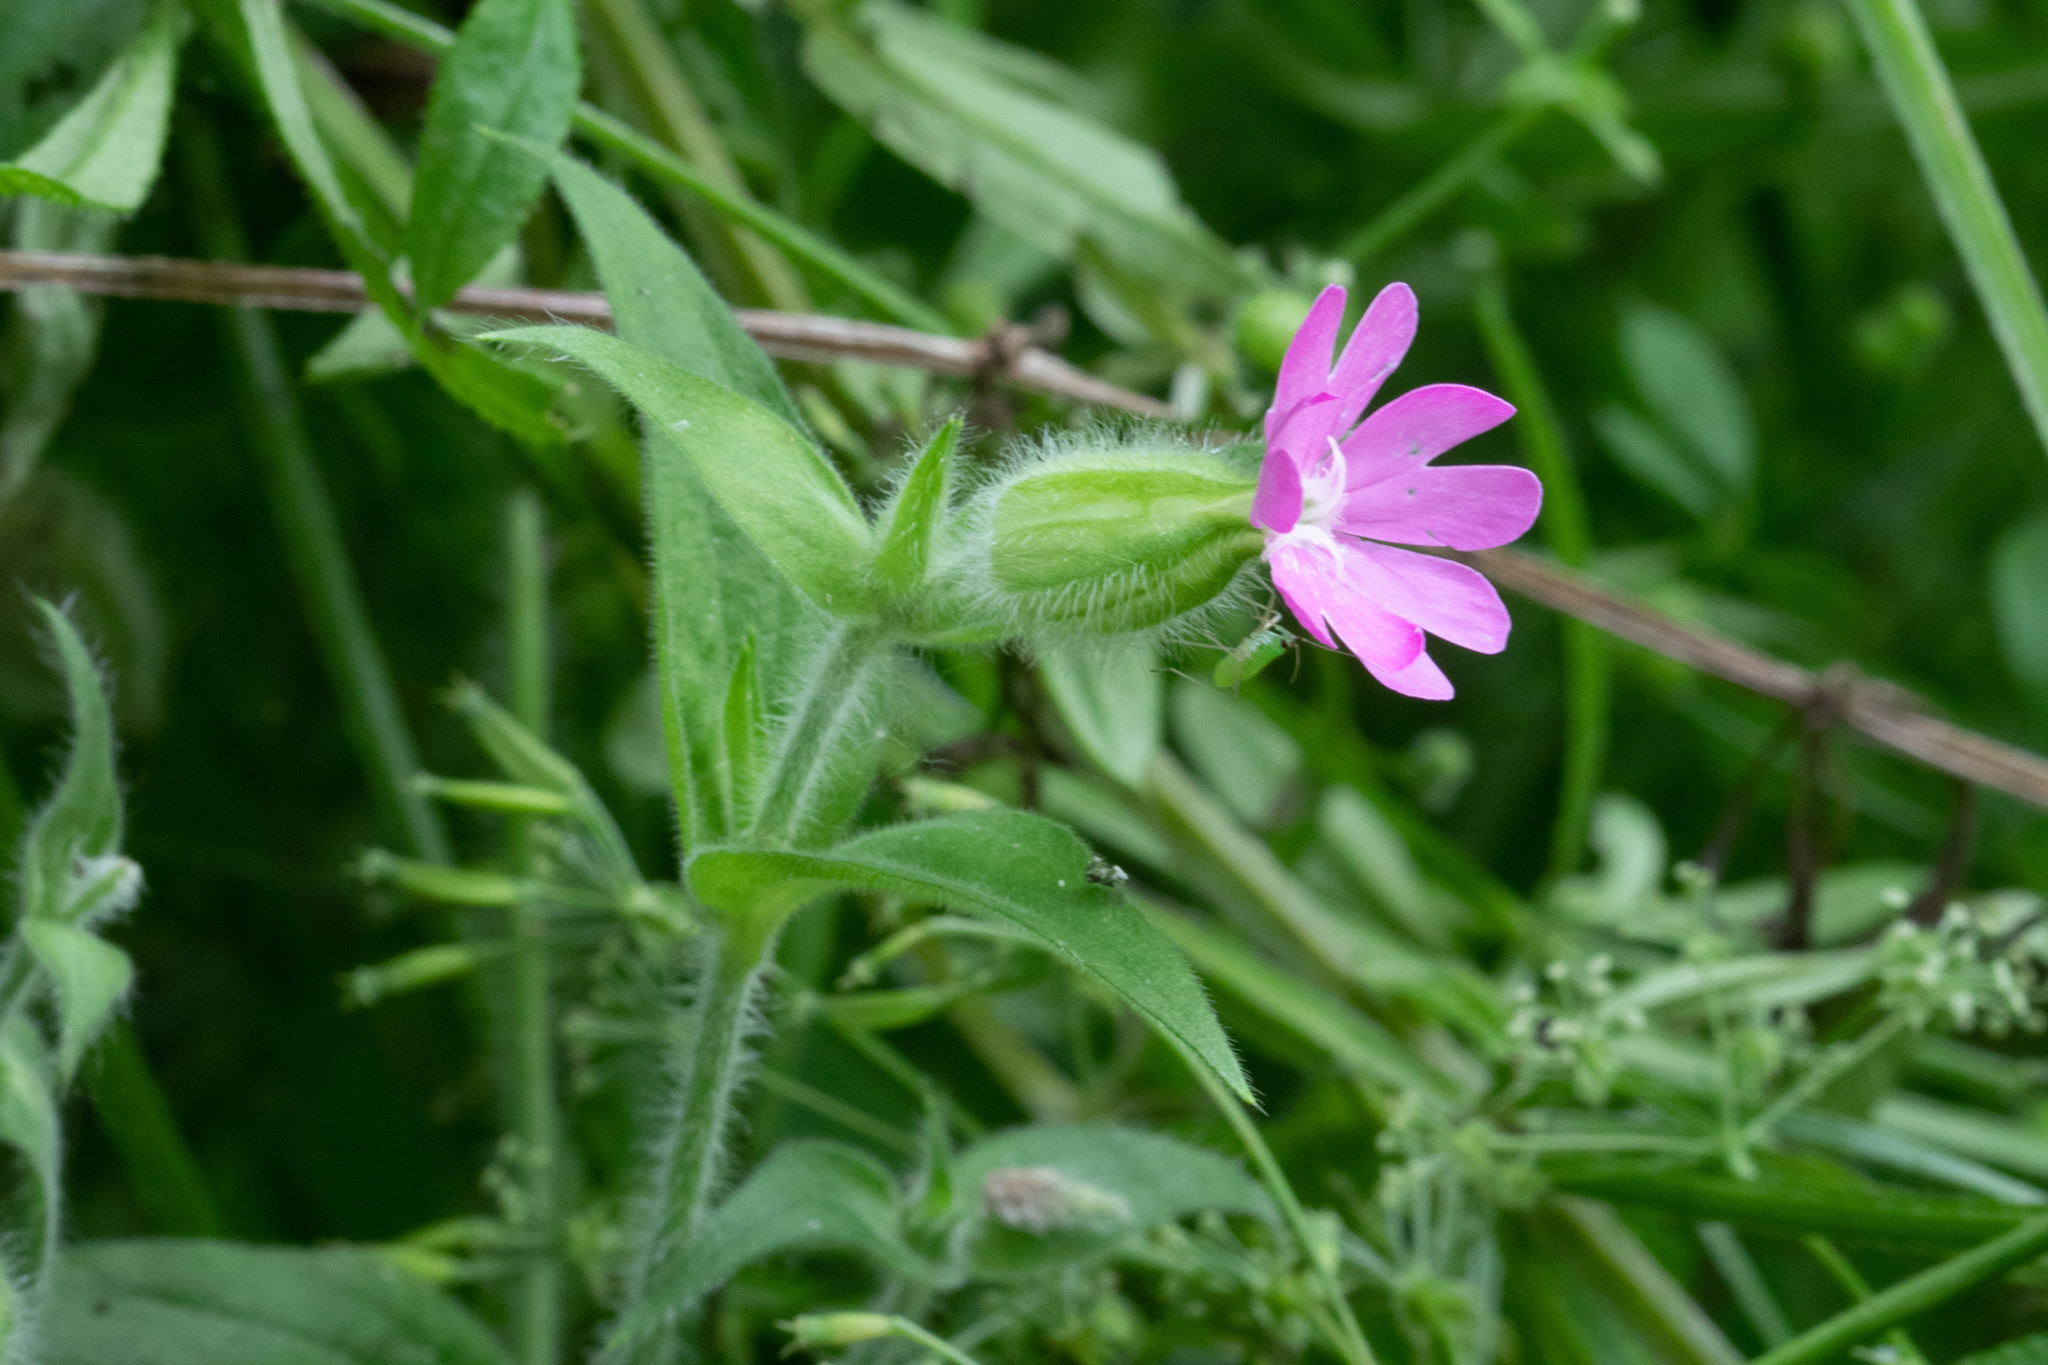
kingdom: Plantae
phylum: Tracheophyta
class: Magnoliopsida
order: Caryophyllales
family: Caryophyllaceae
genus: Silene
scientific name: Silene dioica
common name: Red campion
